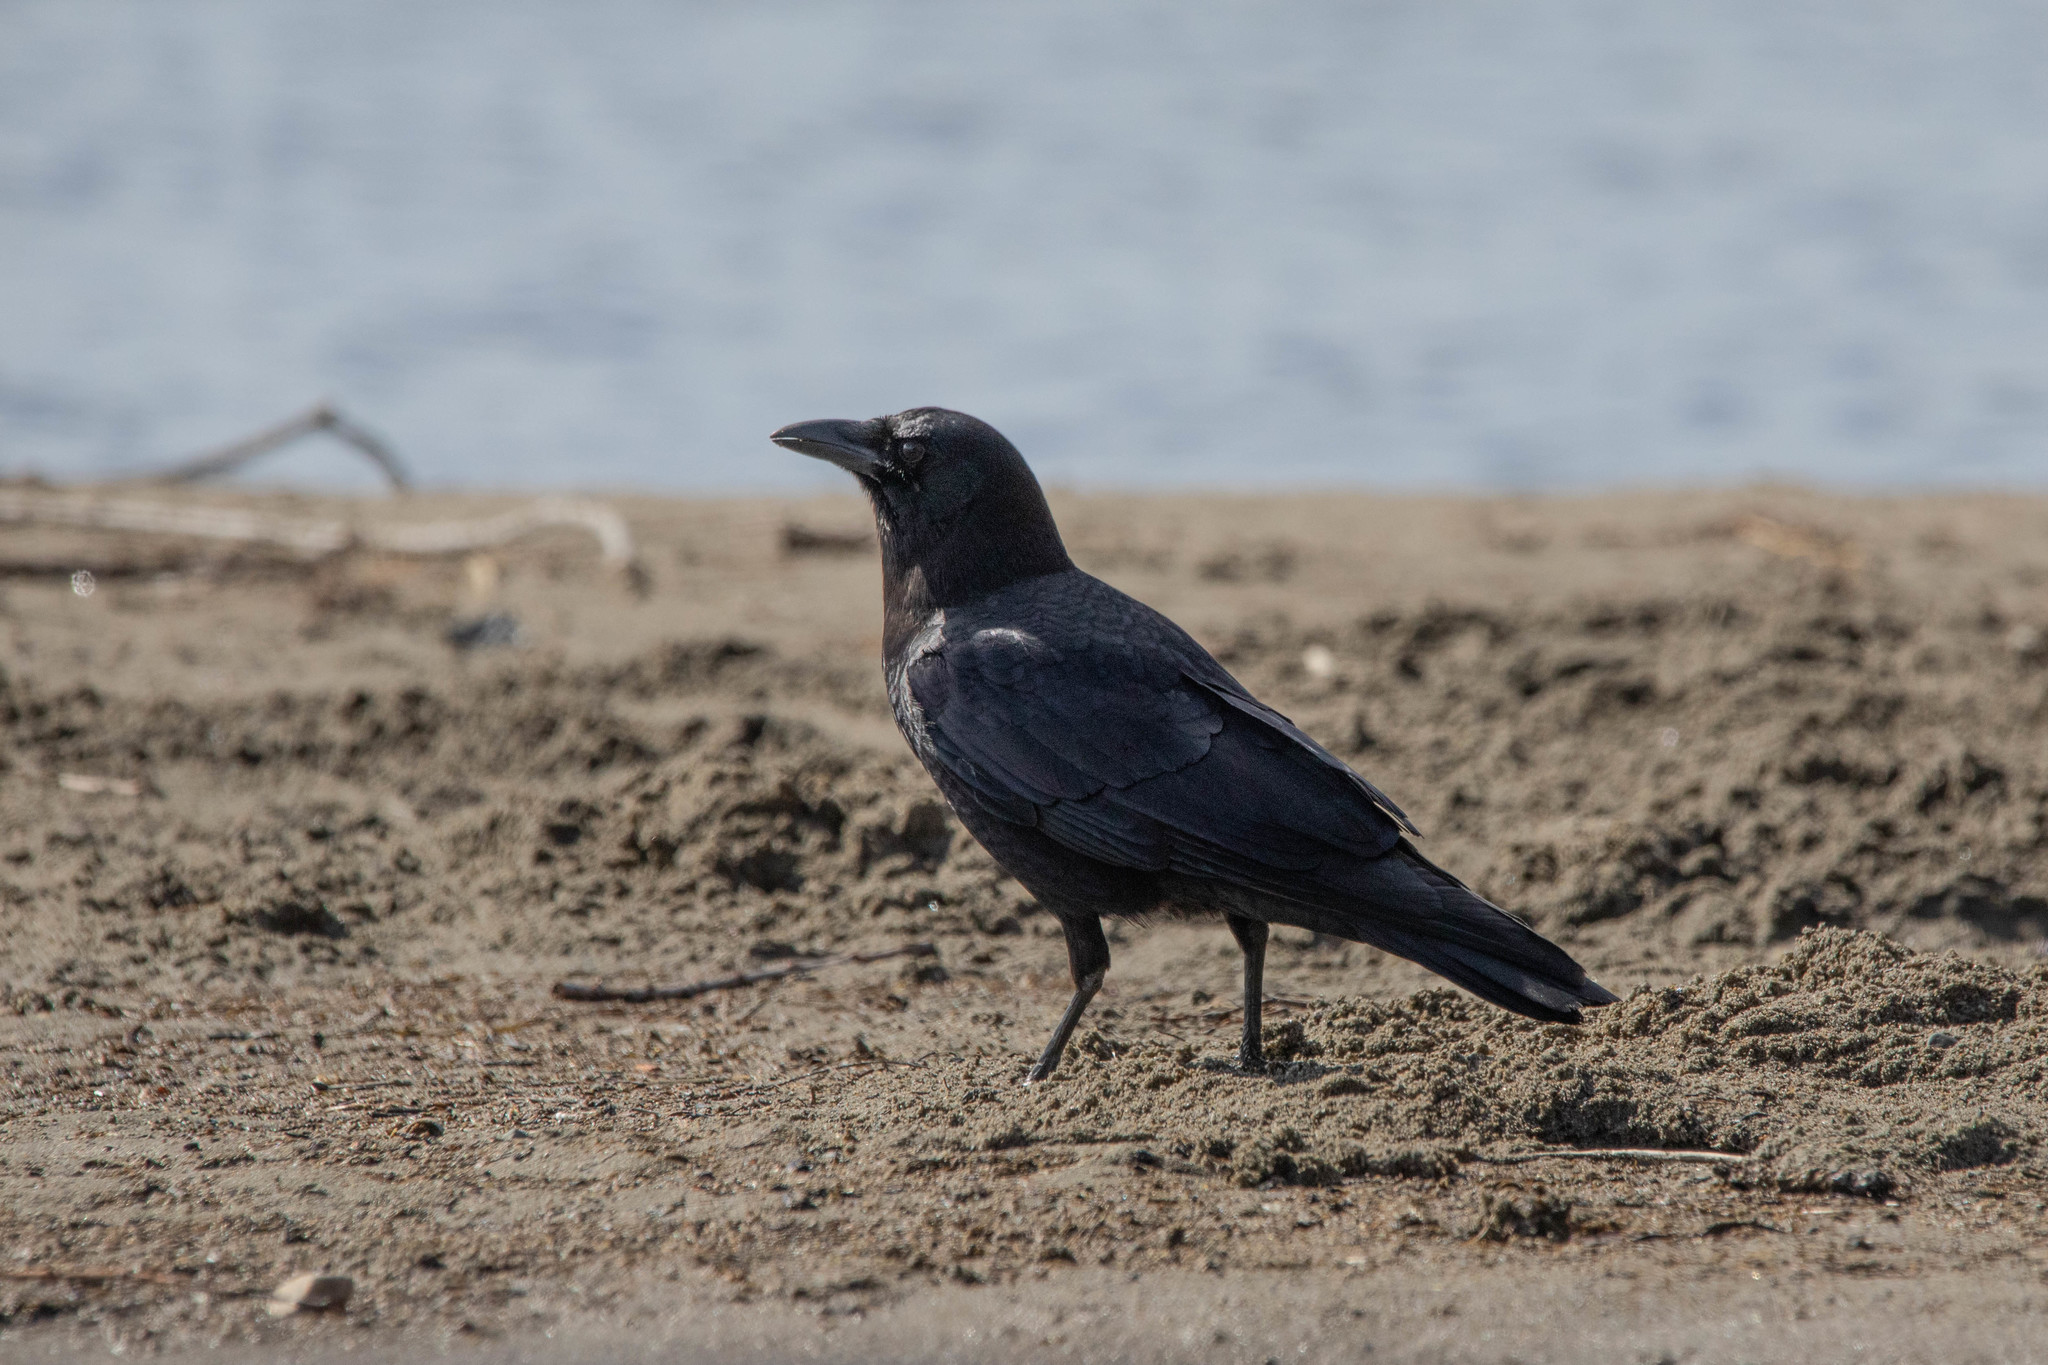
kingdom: Animalia
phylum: Chordata
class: Aves
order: Passeriformes
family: Corvidae
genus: Corvus
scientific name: Corvus brachyrhynchos
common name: American crow
